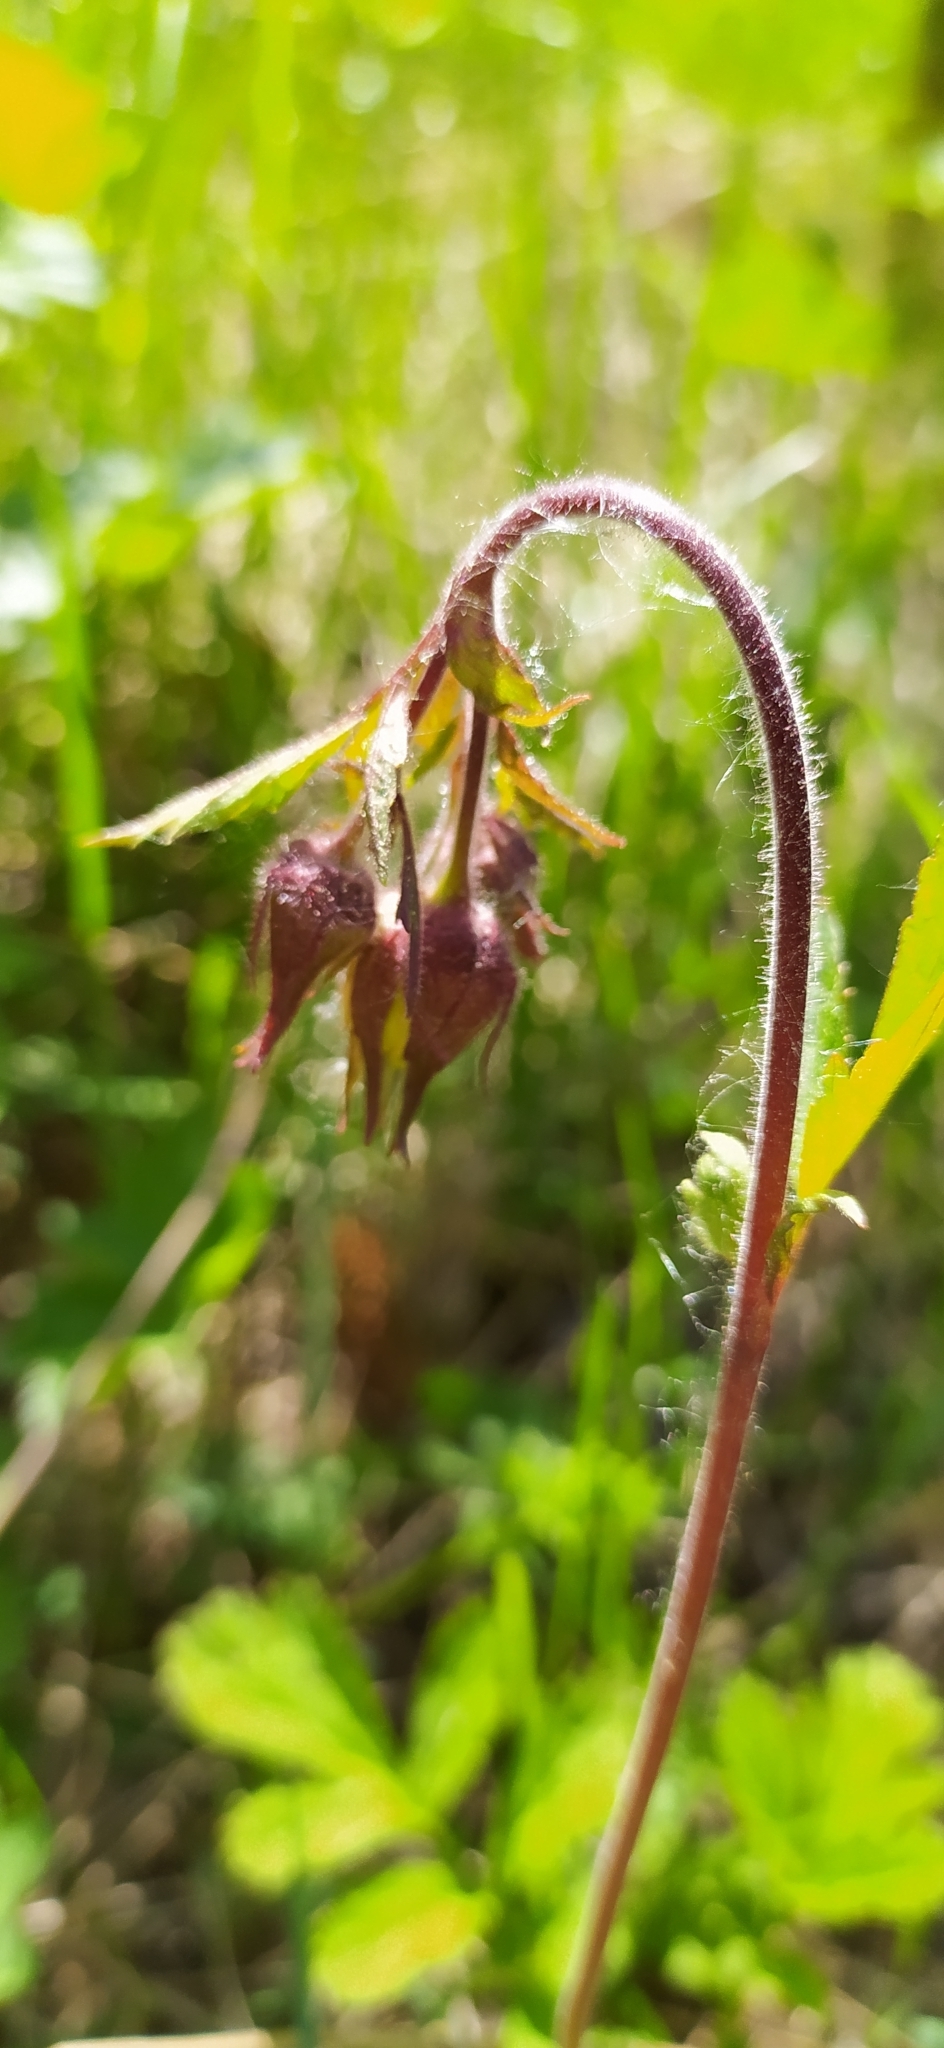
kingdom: Plantae
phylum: Tracheophyta
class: Magnoliopsida
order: Rosales
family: Rosaceae
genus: Geum
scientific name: Geum rivale
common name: Water avens
